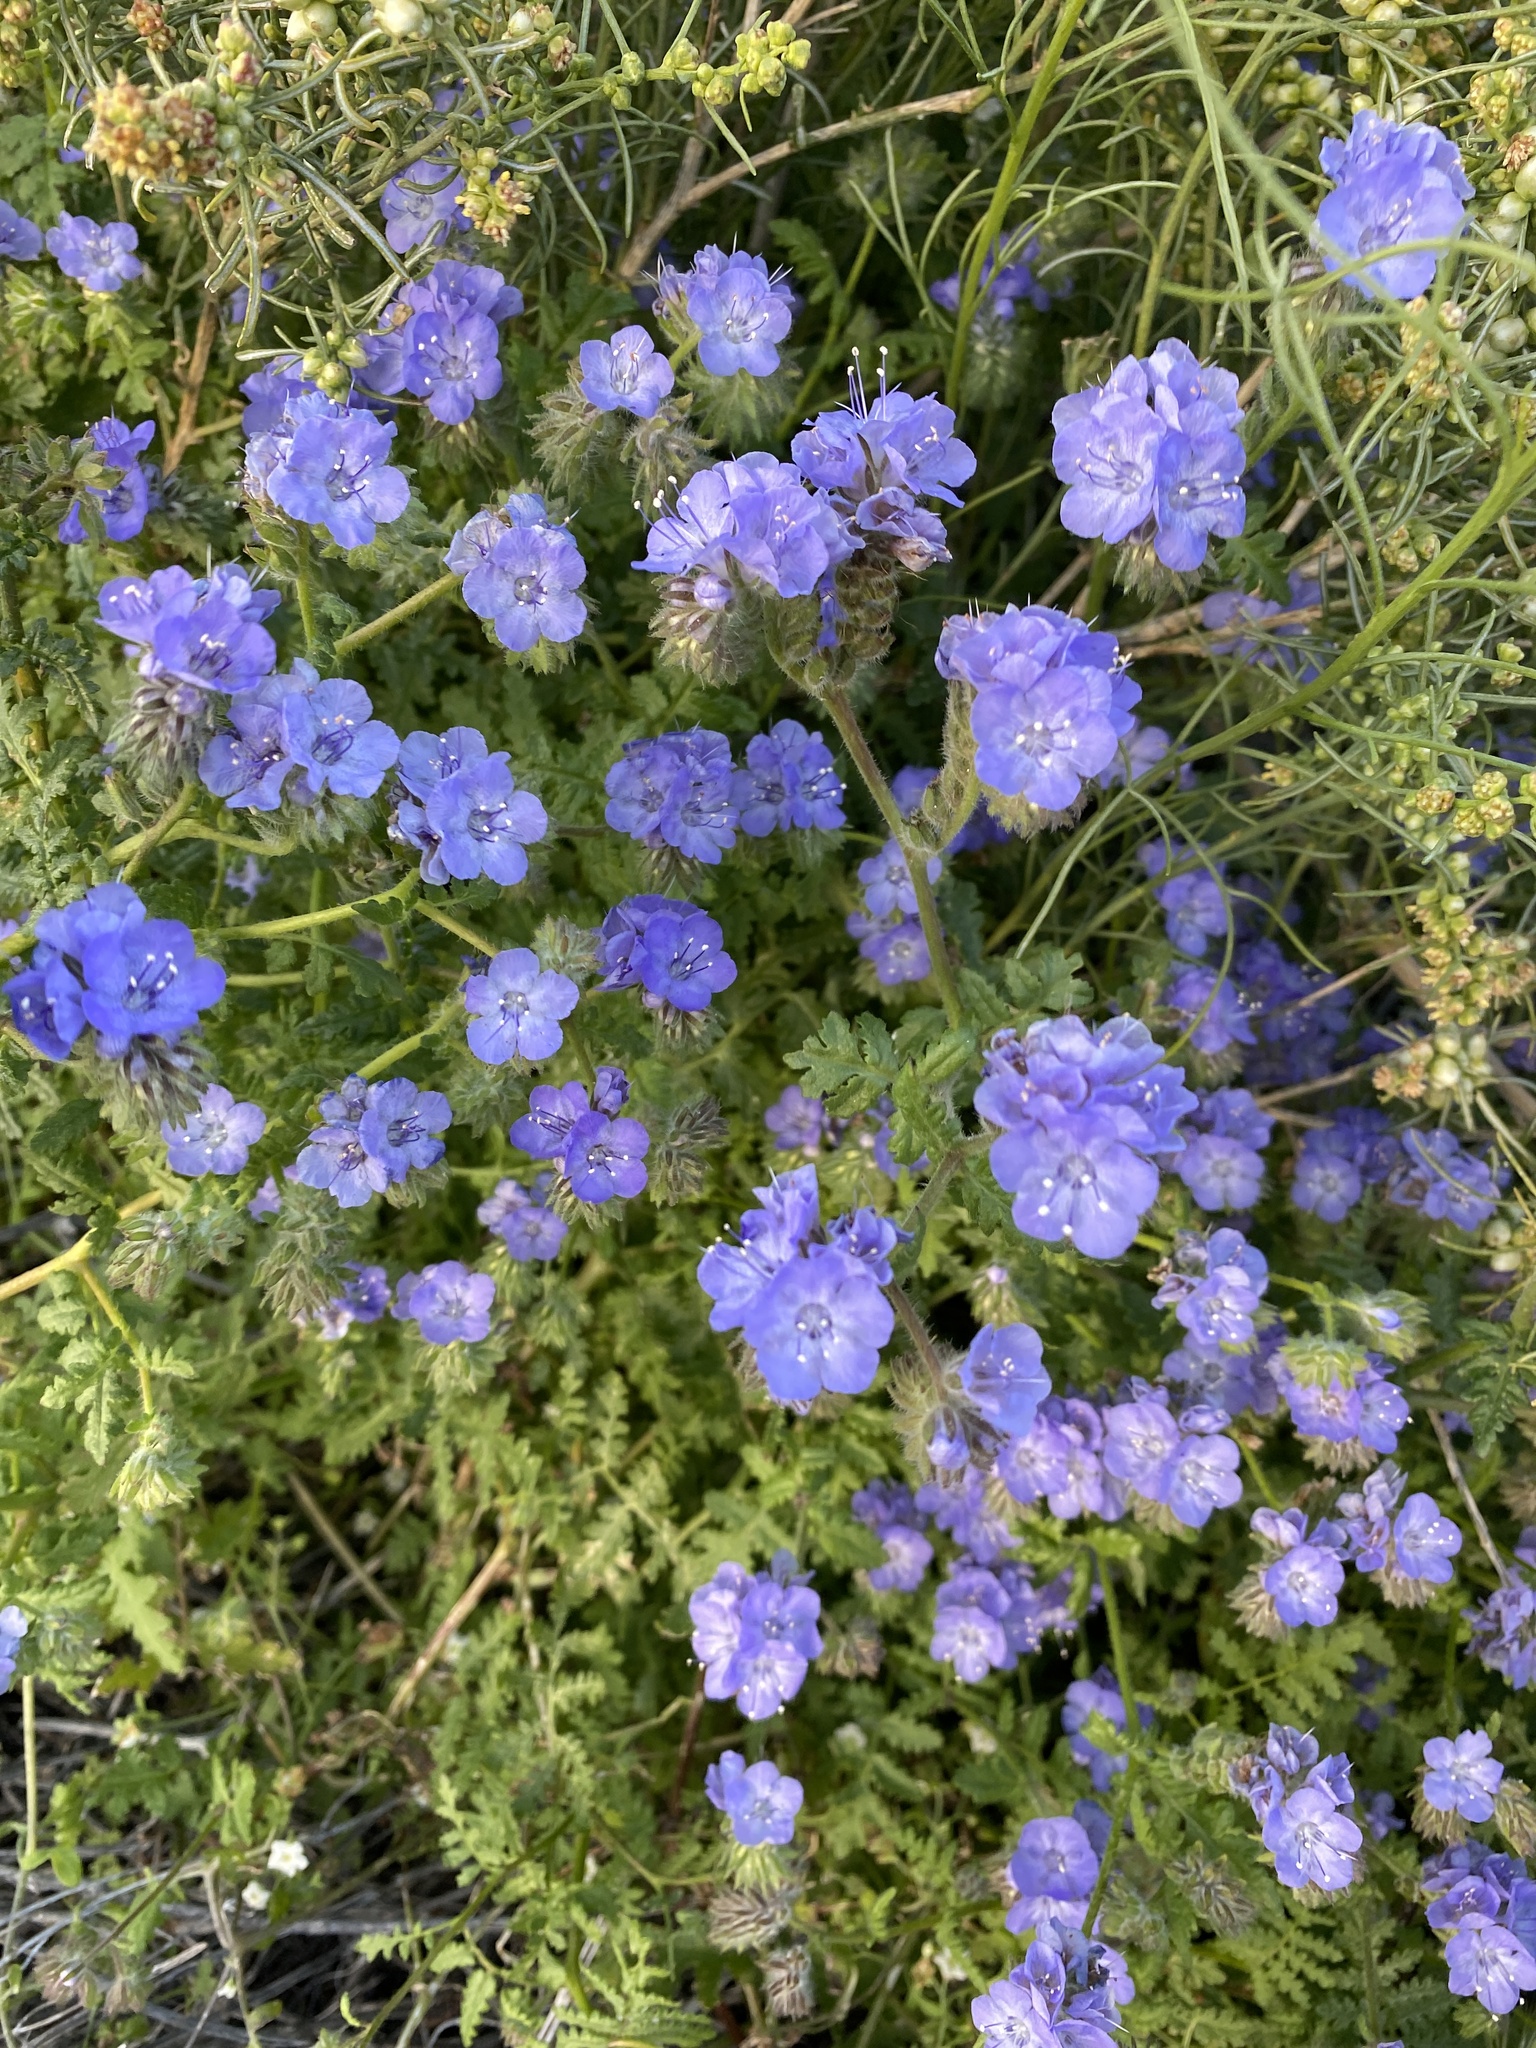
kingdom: Plantae
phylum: Tracheophyta
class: Magnoliopsida
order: Boraginales
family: Hydrophyllaceae
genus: Phacelia
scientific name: Phacelia distans
